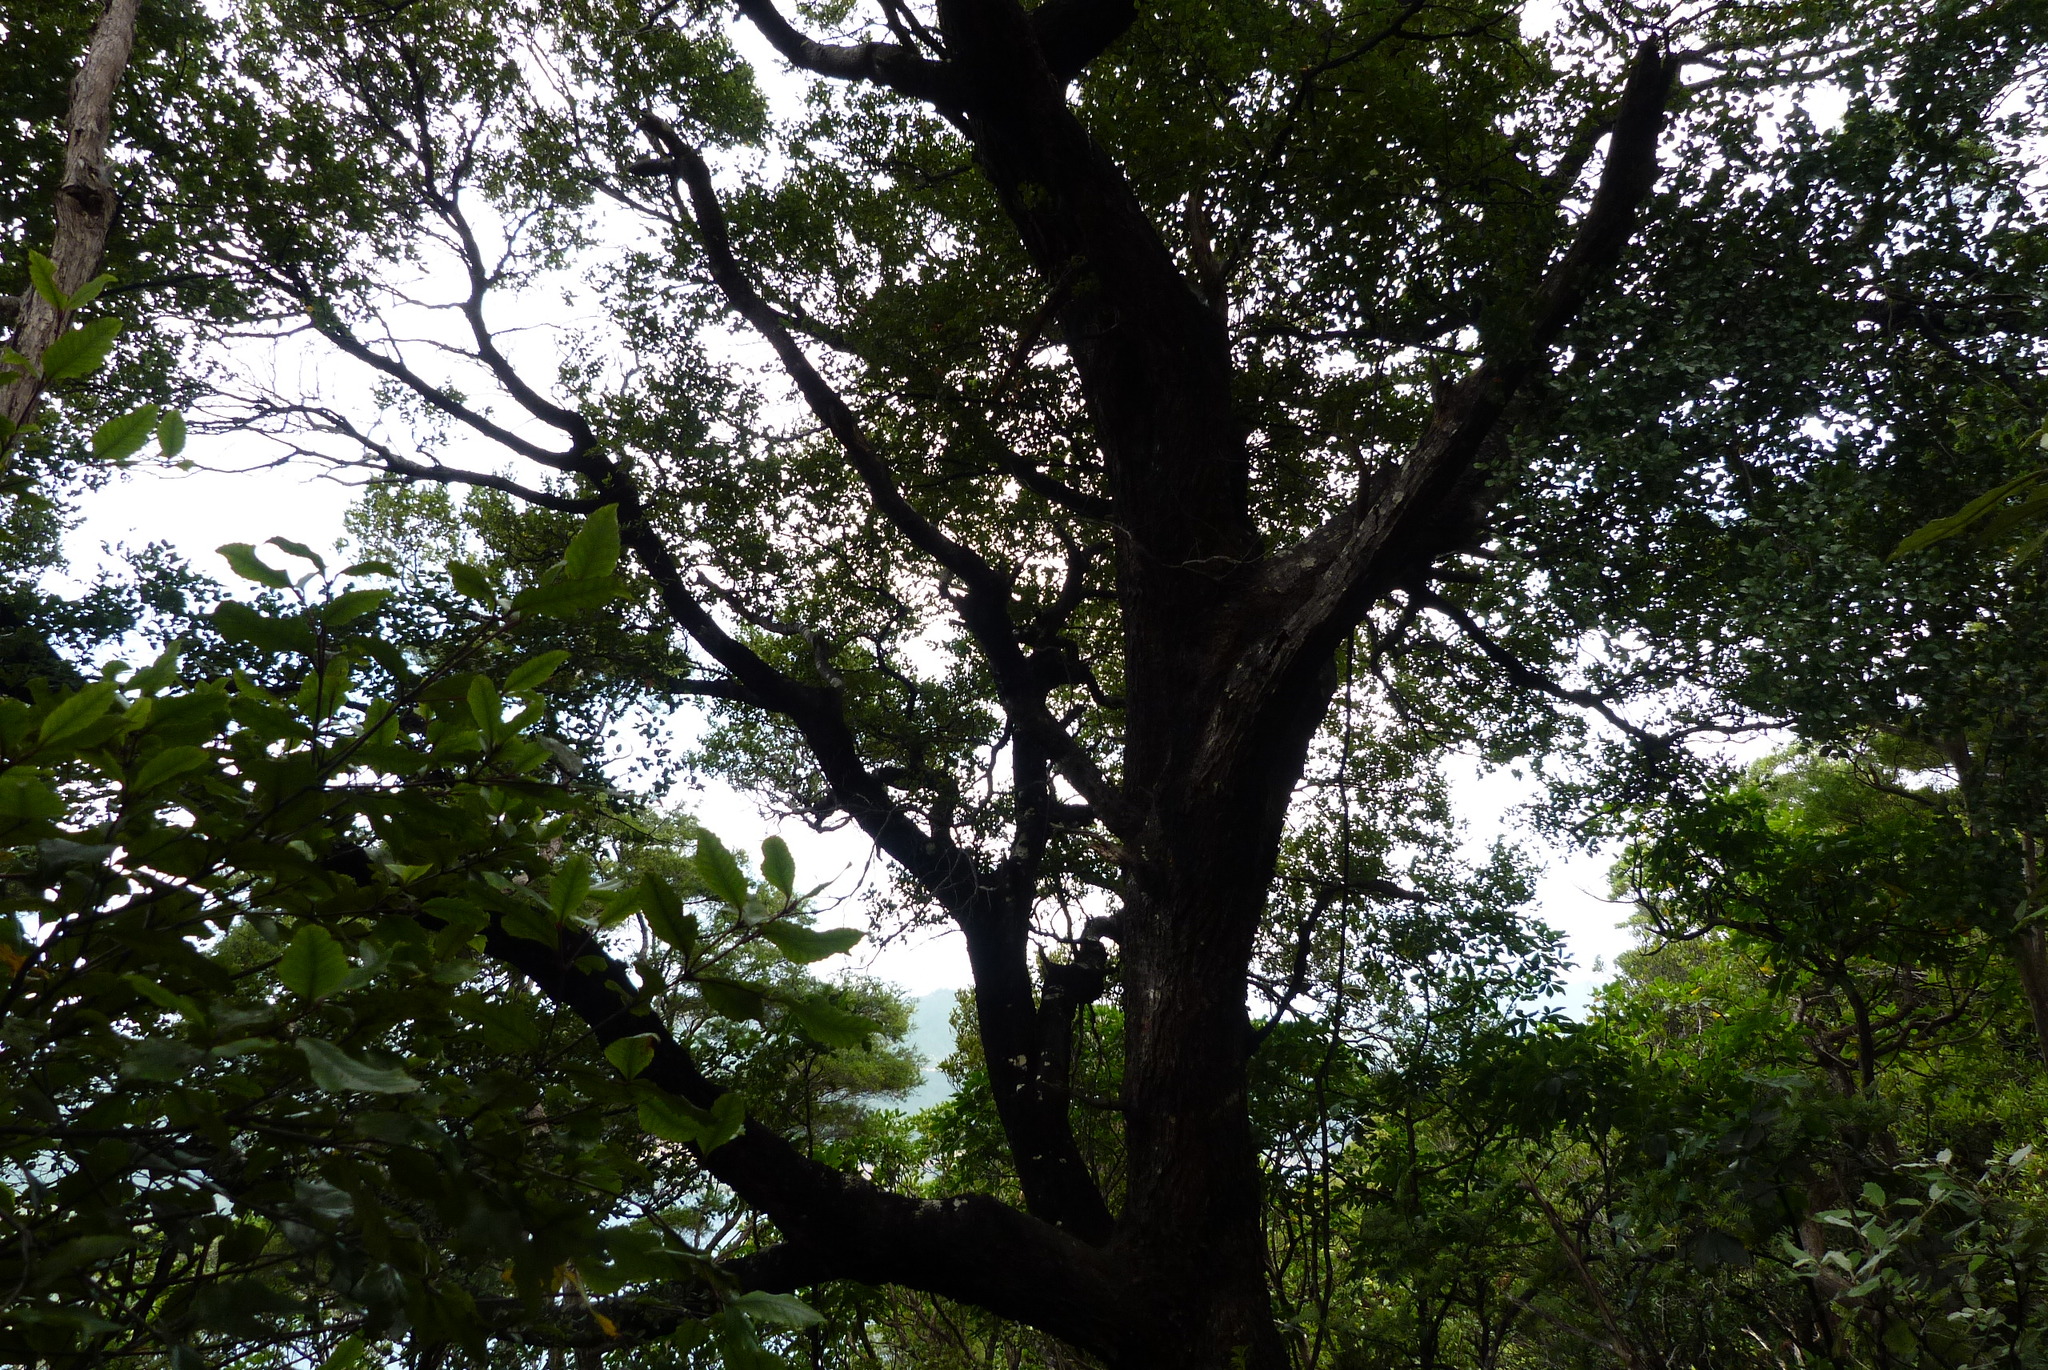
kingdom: Plantae
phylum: Tracheophyta
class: Magnoliopsida
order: Fagales
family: Nothofagaceae
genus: Nothofagus
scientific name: Nothofagus truncata
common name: Hard beech
